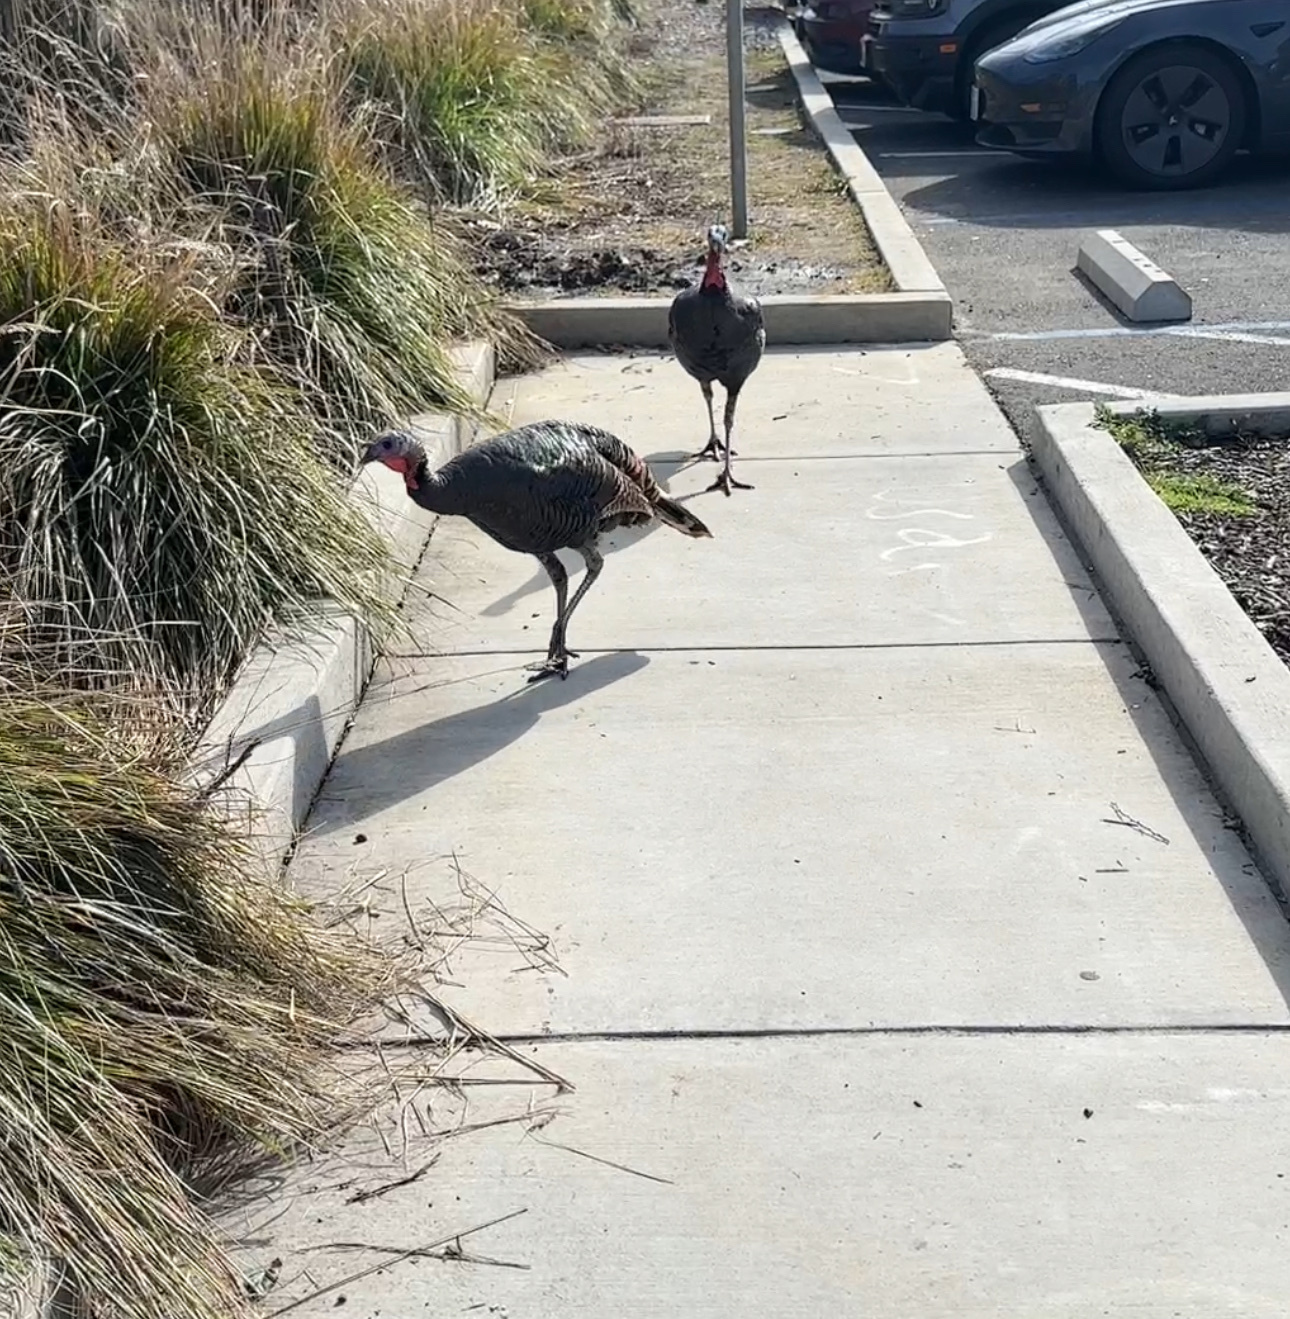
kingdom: Animalia
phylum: Chordata
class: Aves
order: Galliformes
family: Phasianidae
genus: Meleagris
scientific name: Meleagris gallopavo
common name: Wild turkey
